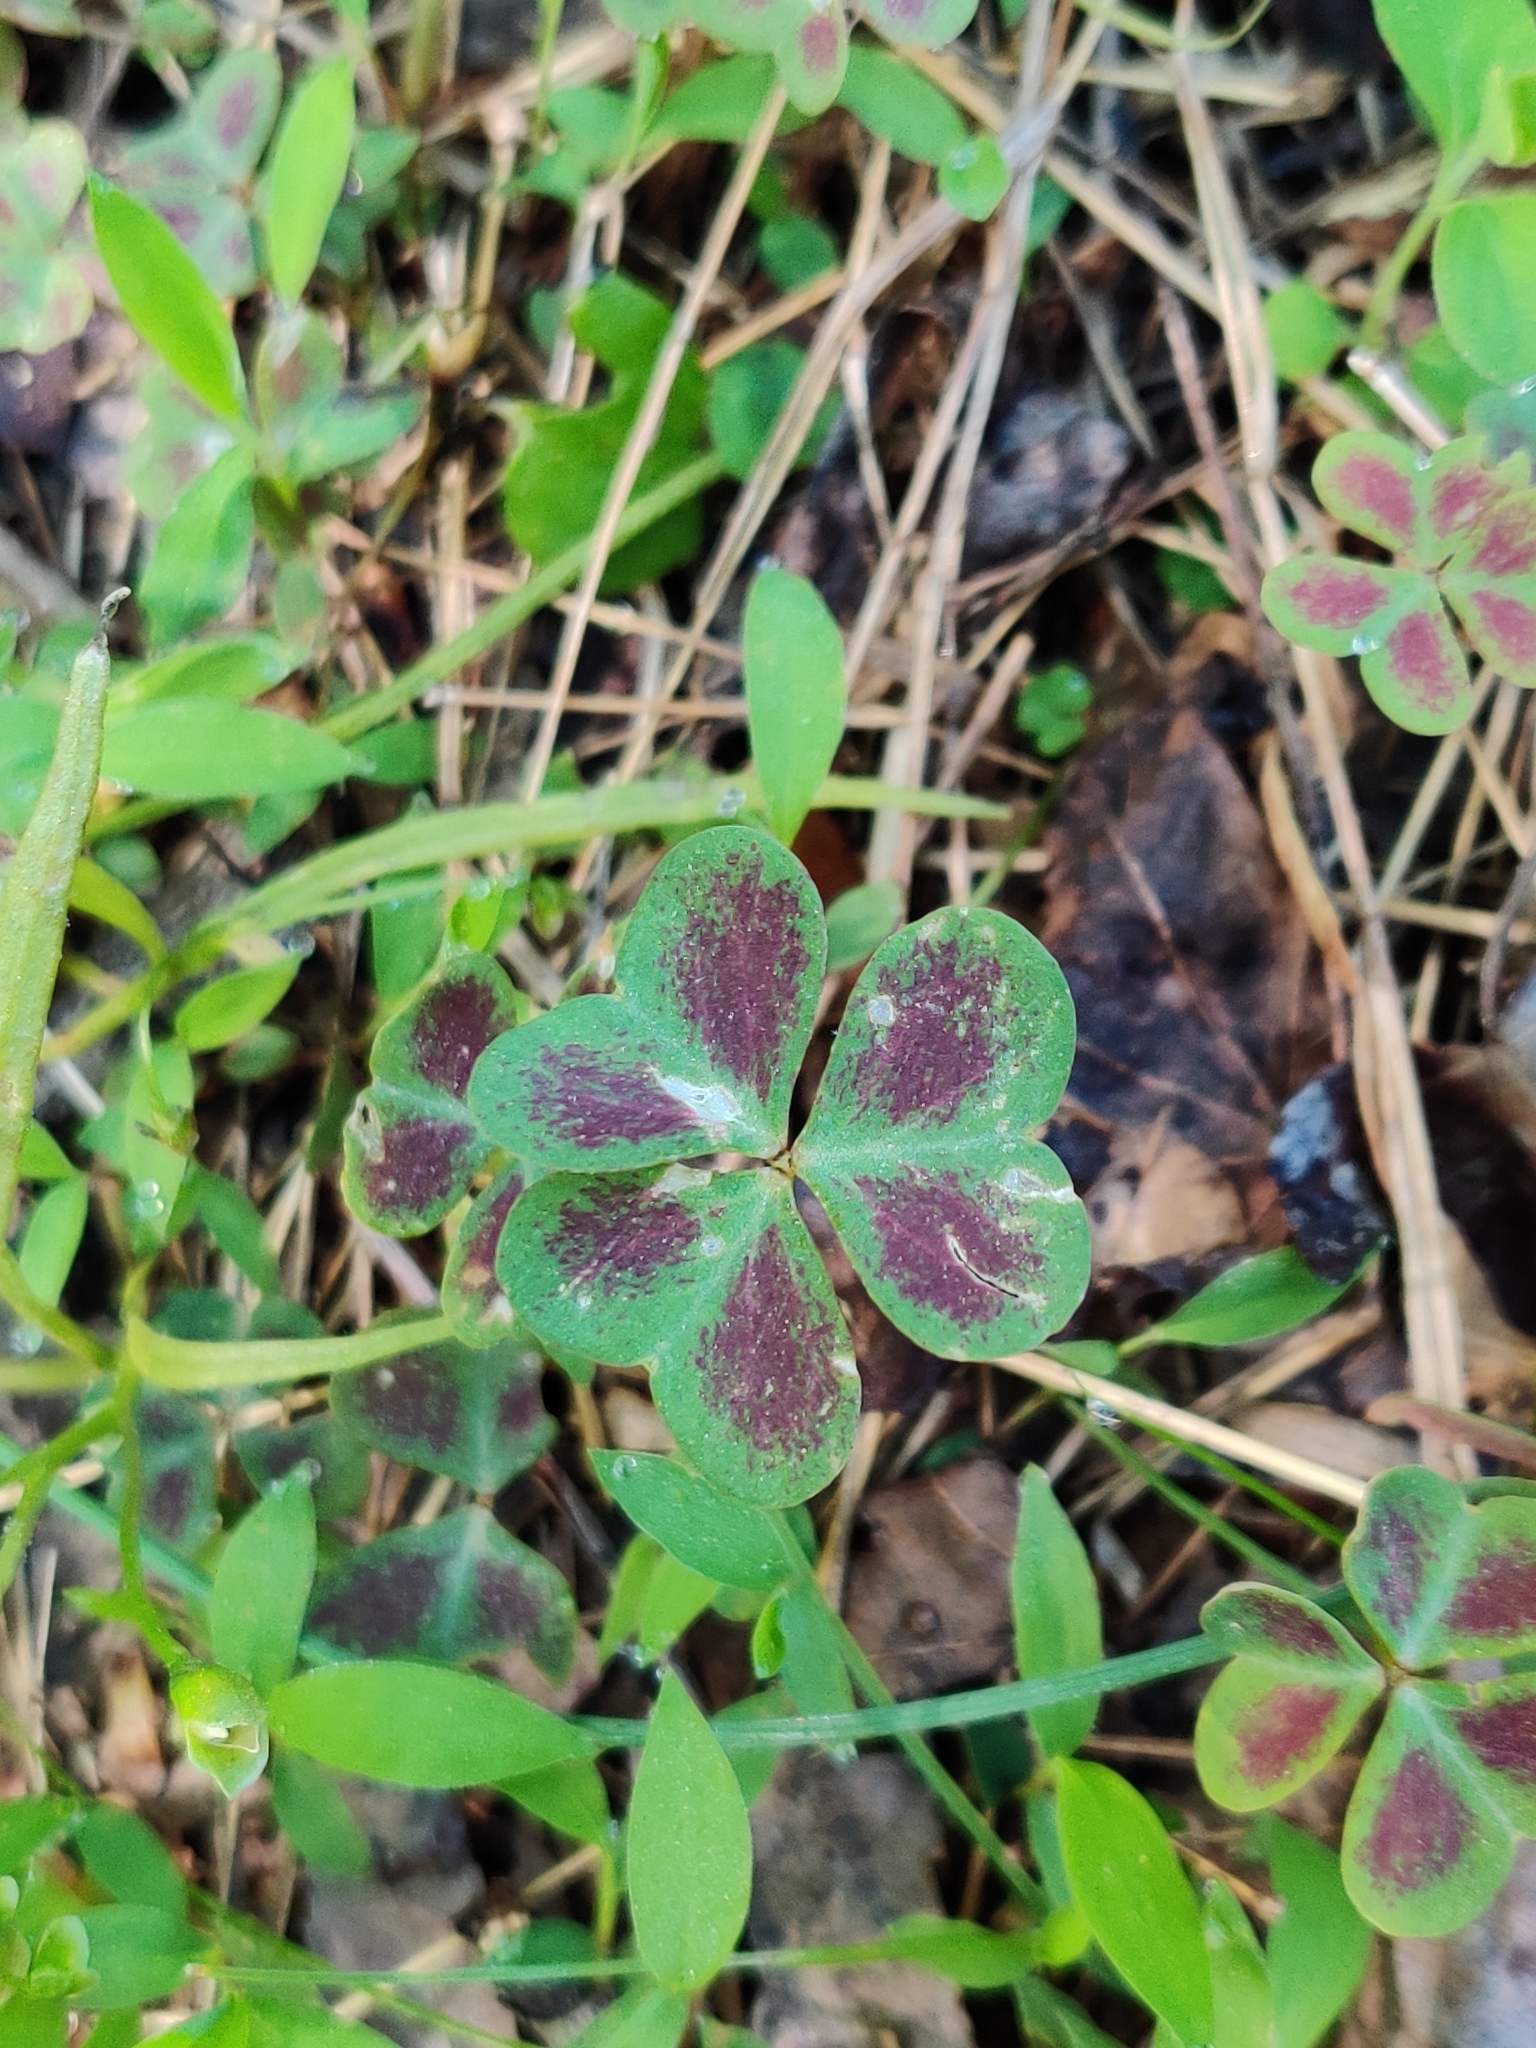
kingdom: Plantae
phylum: Tracheophyta
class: Magnoliopsida
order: Oxalidales
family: Oxalidaceae
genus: Oxalis
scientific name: Oxalis violacea
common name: Violet wood-sorrel
